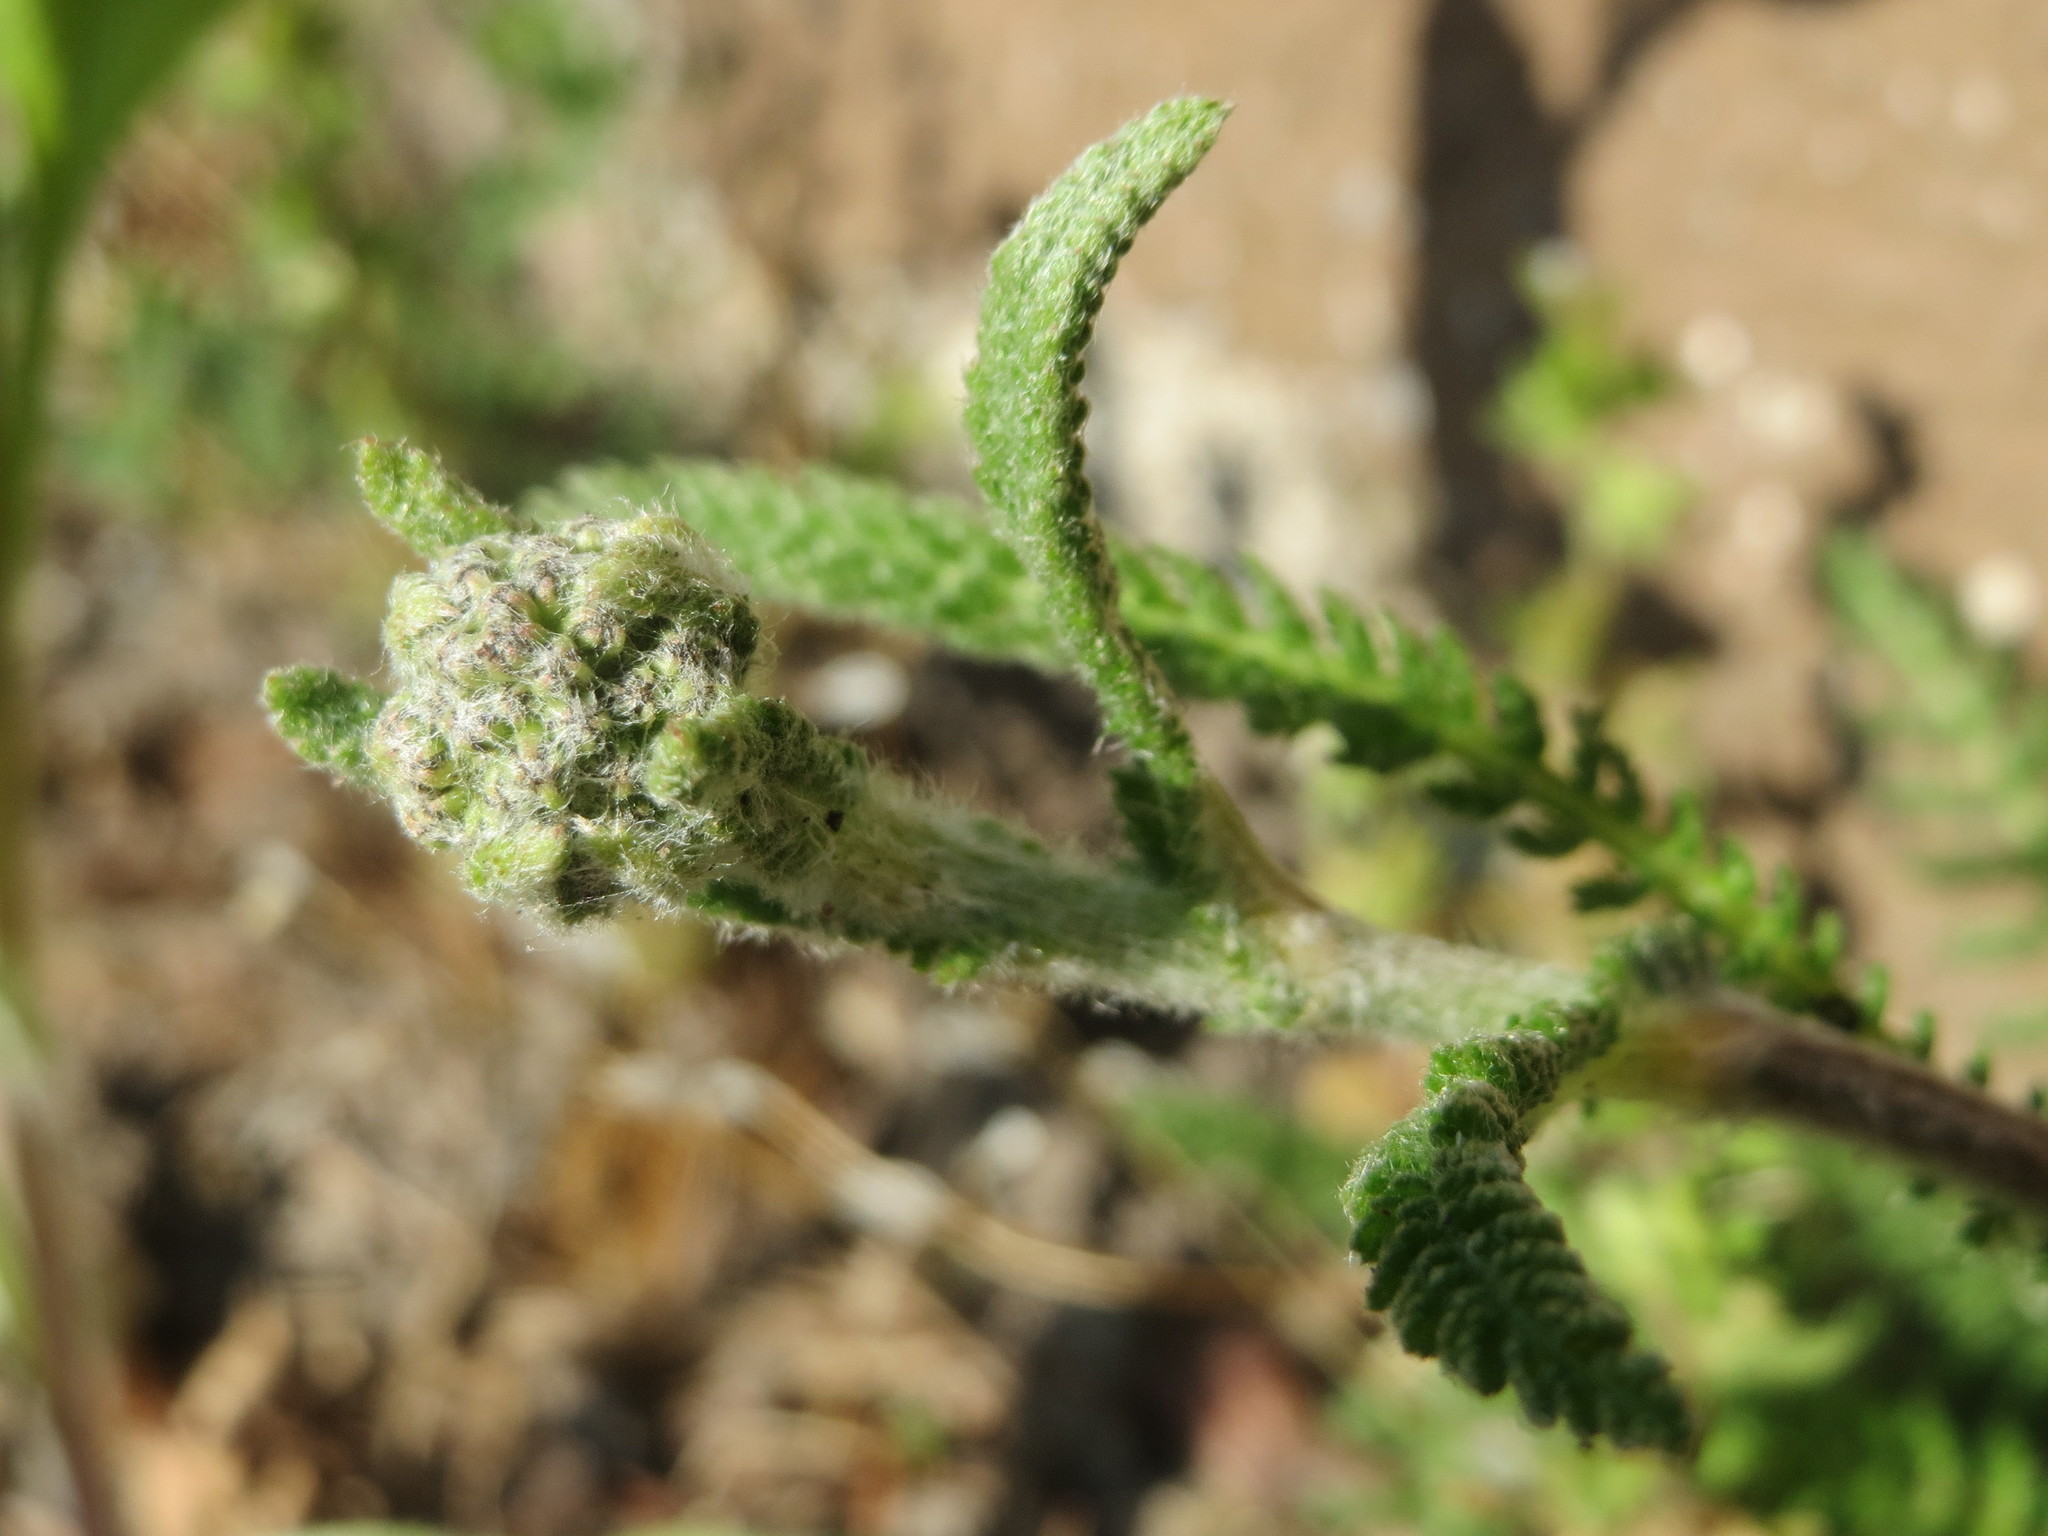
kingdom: Plantae
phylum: Tracheophyta
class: Magnoliopsida
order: Asterales
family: Asteraceae
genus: Achillea
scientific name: Achillea millefolium
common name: Yarrow
